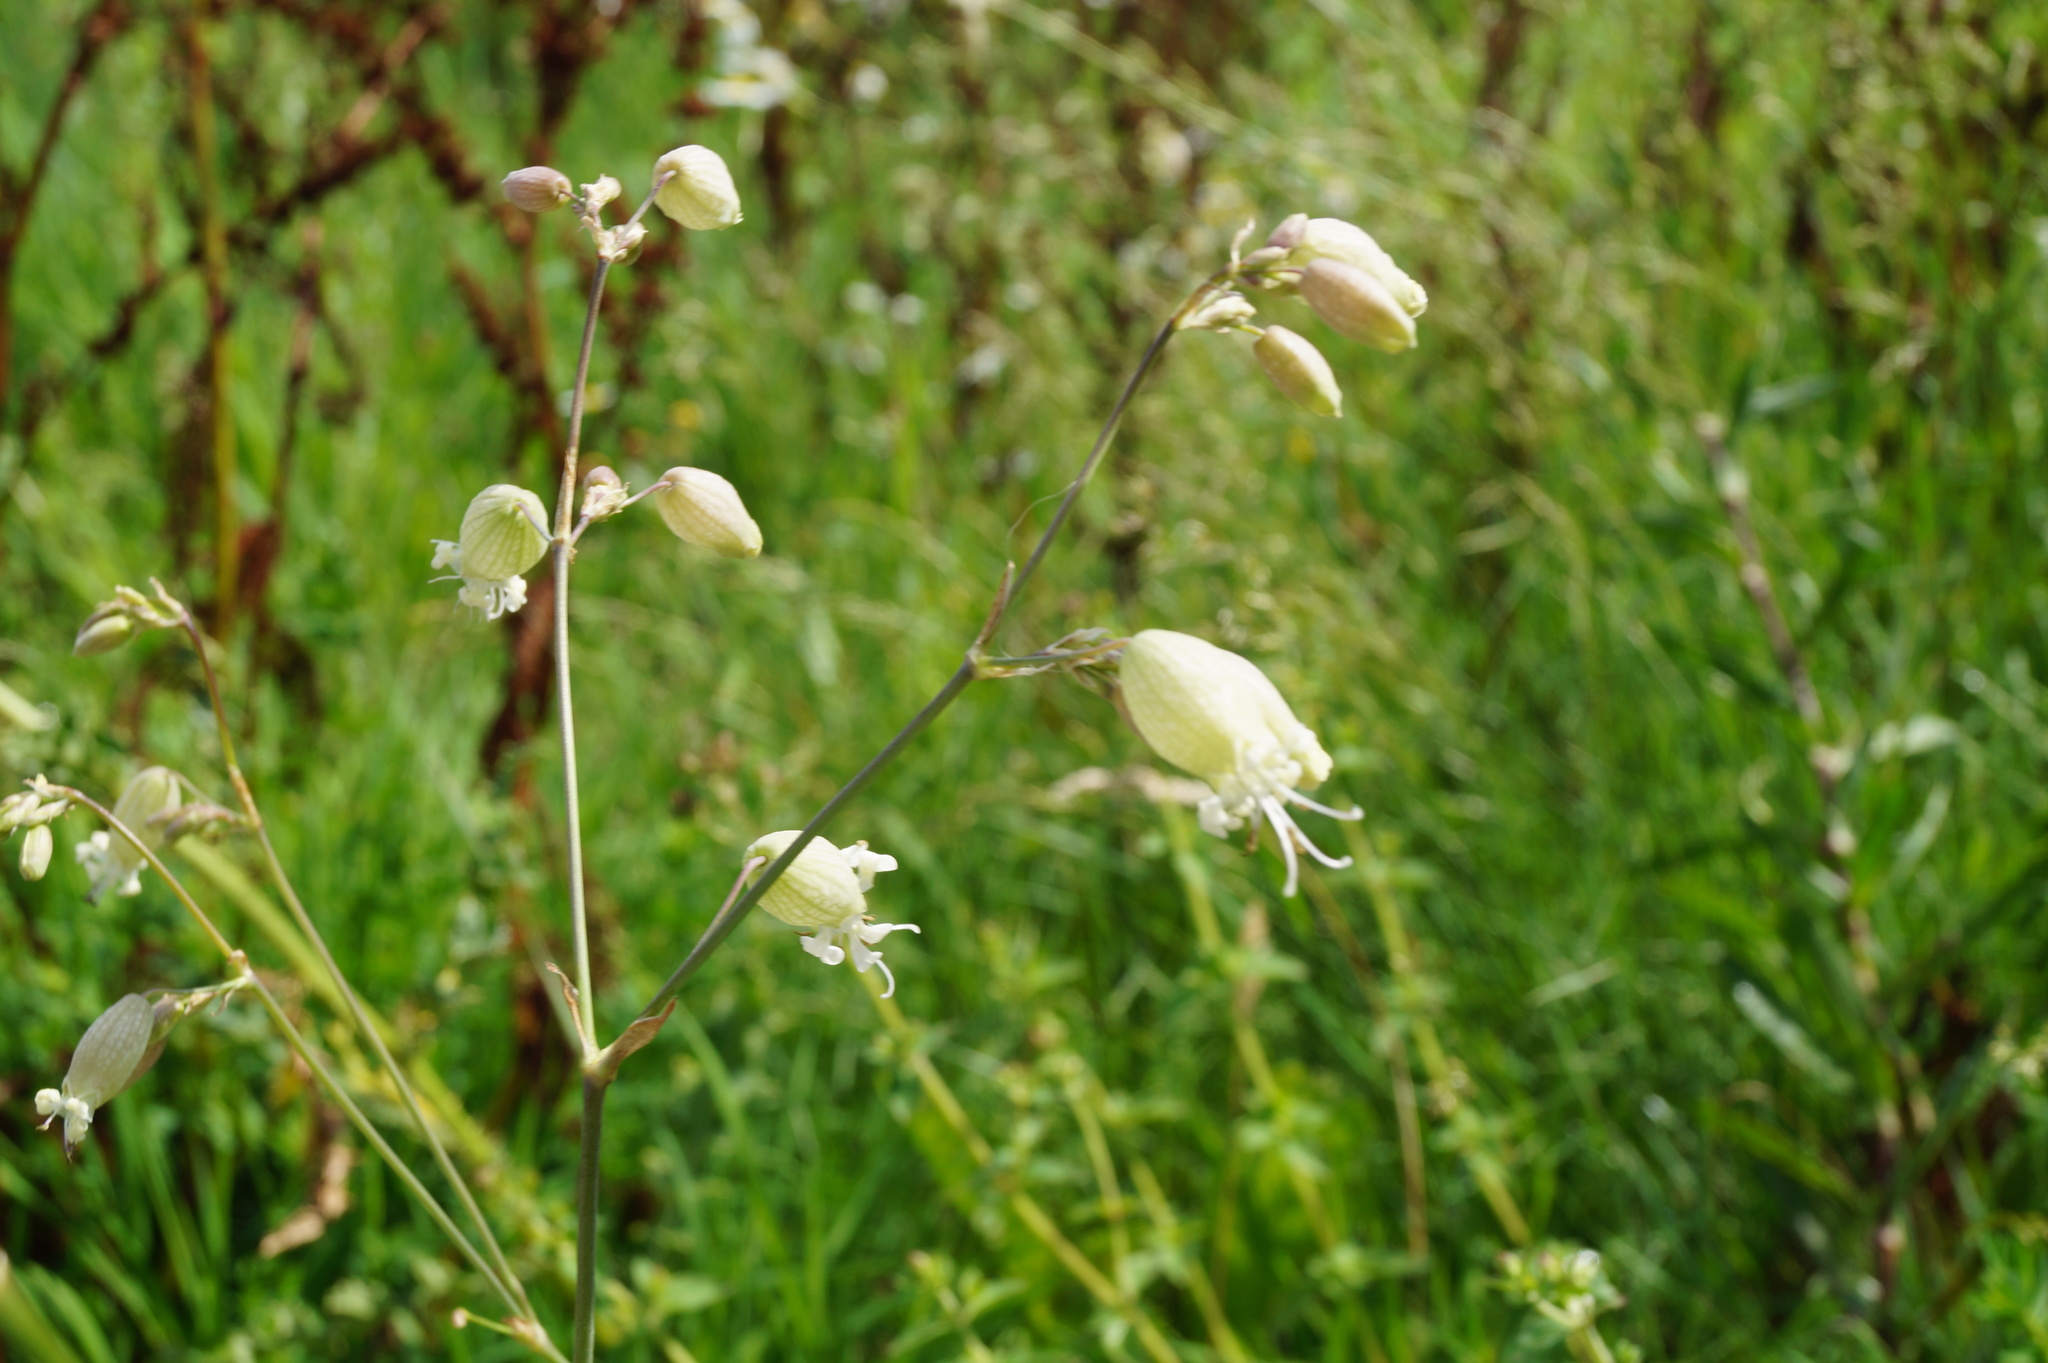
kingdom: Plantae
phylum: Tracheophyta
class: Magnoliopsida
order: Caryophyllales
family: Caryophyllaceae
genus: Silene
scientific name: Silene vulgaris
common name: Bladder campion
